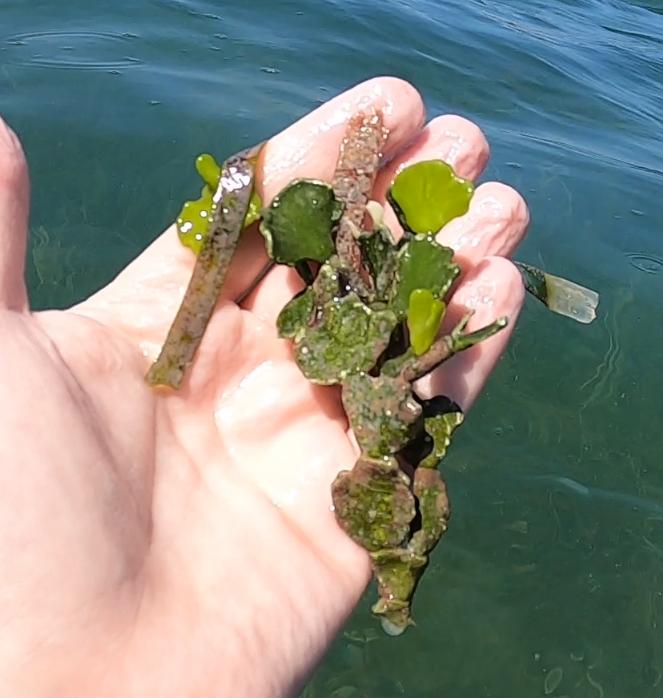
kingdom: Plantae
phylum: Chlorophyta
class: Ulvophyceae
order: Bryopsidales
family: Halimedaceae
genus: Halimeda
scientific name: Halimeda opuntia
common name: Watercress algae
